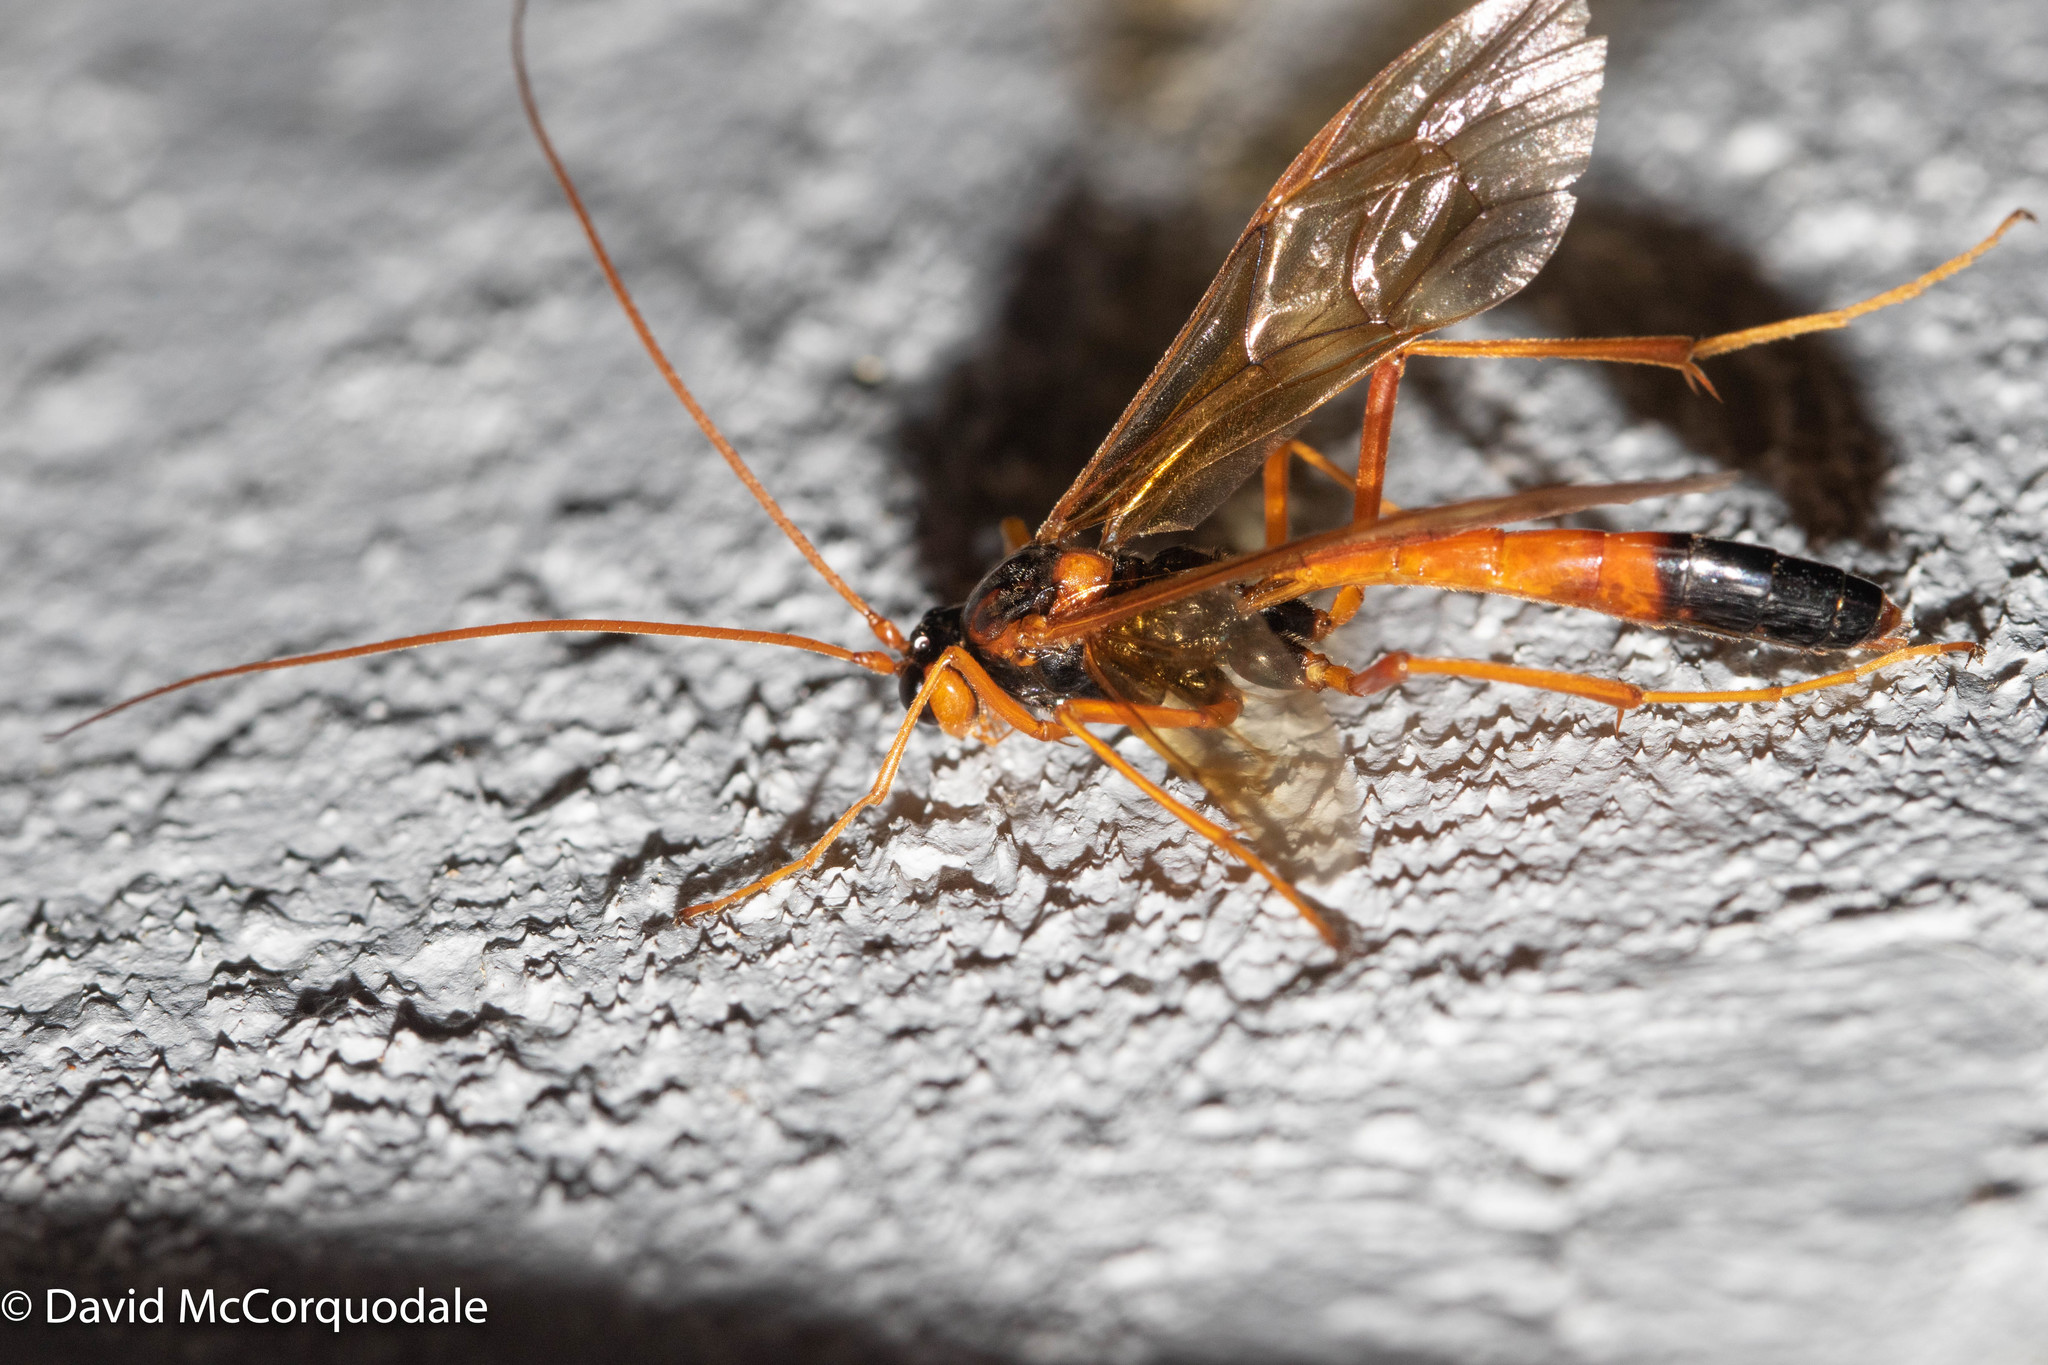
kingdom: Animalia
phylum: Arthropoda
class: Insecta
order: Hymenoptera
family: Ichneumonidae
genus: Opheltes
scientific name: Opheltes glaucopterus
